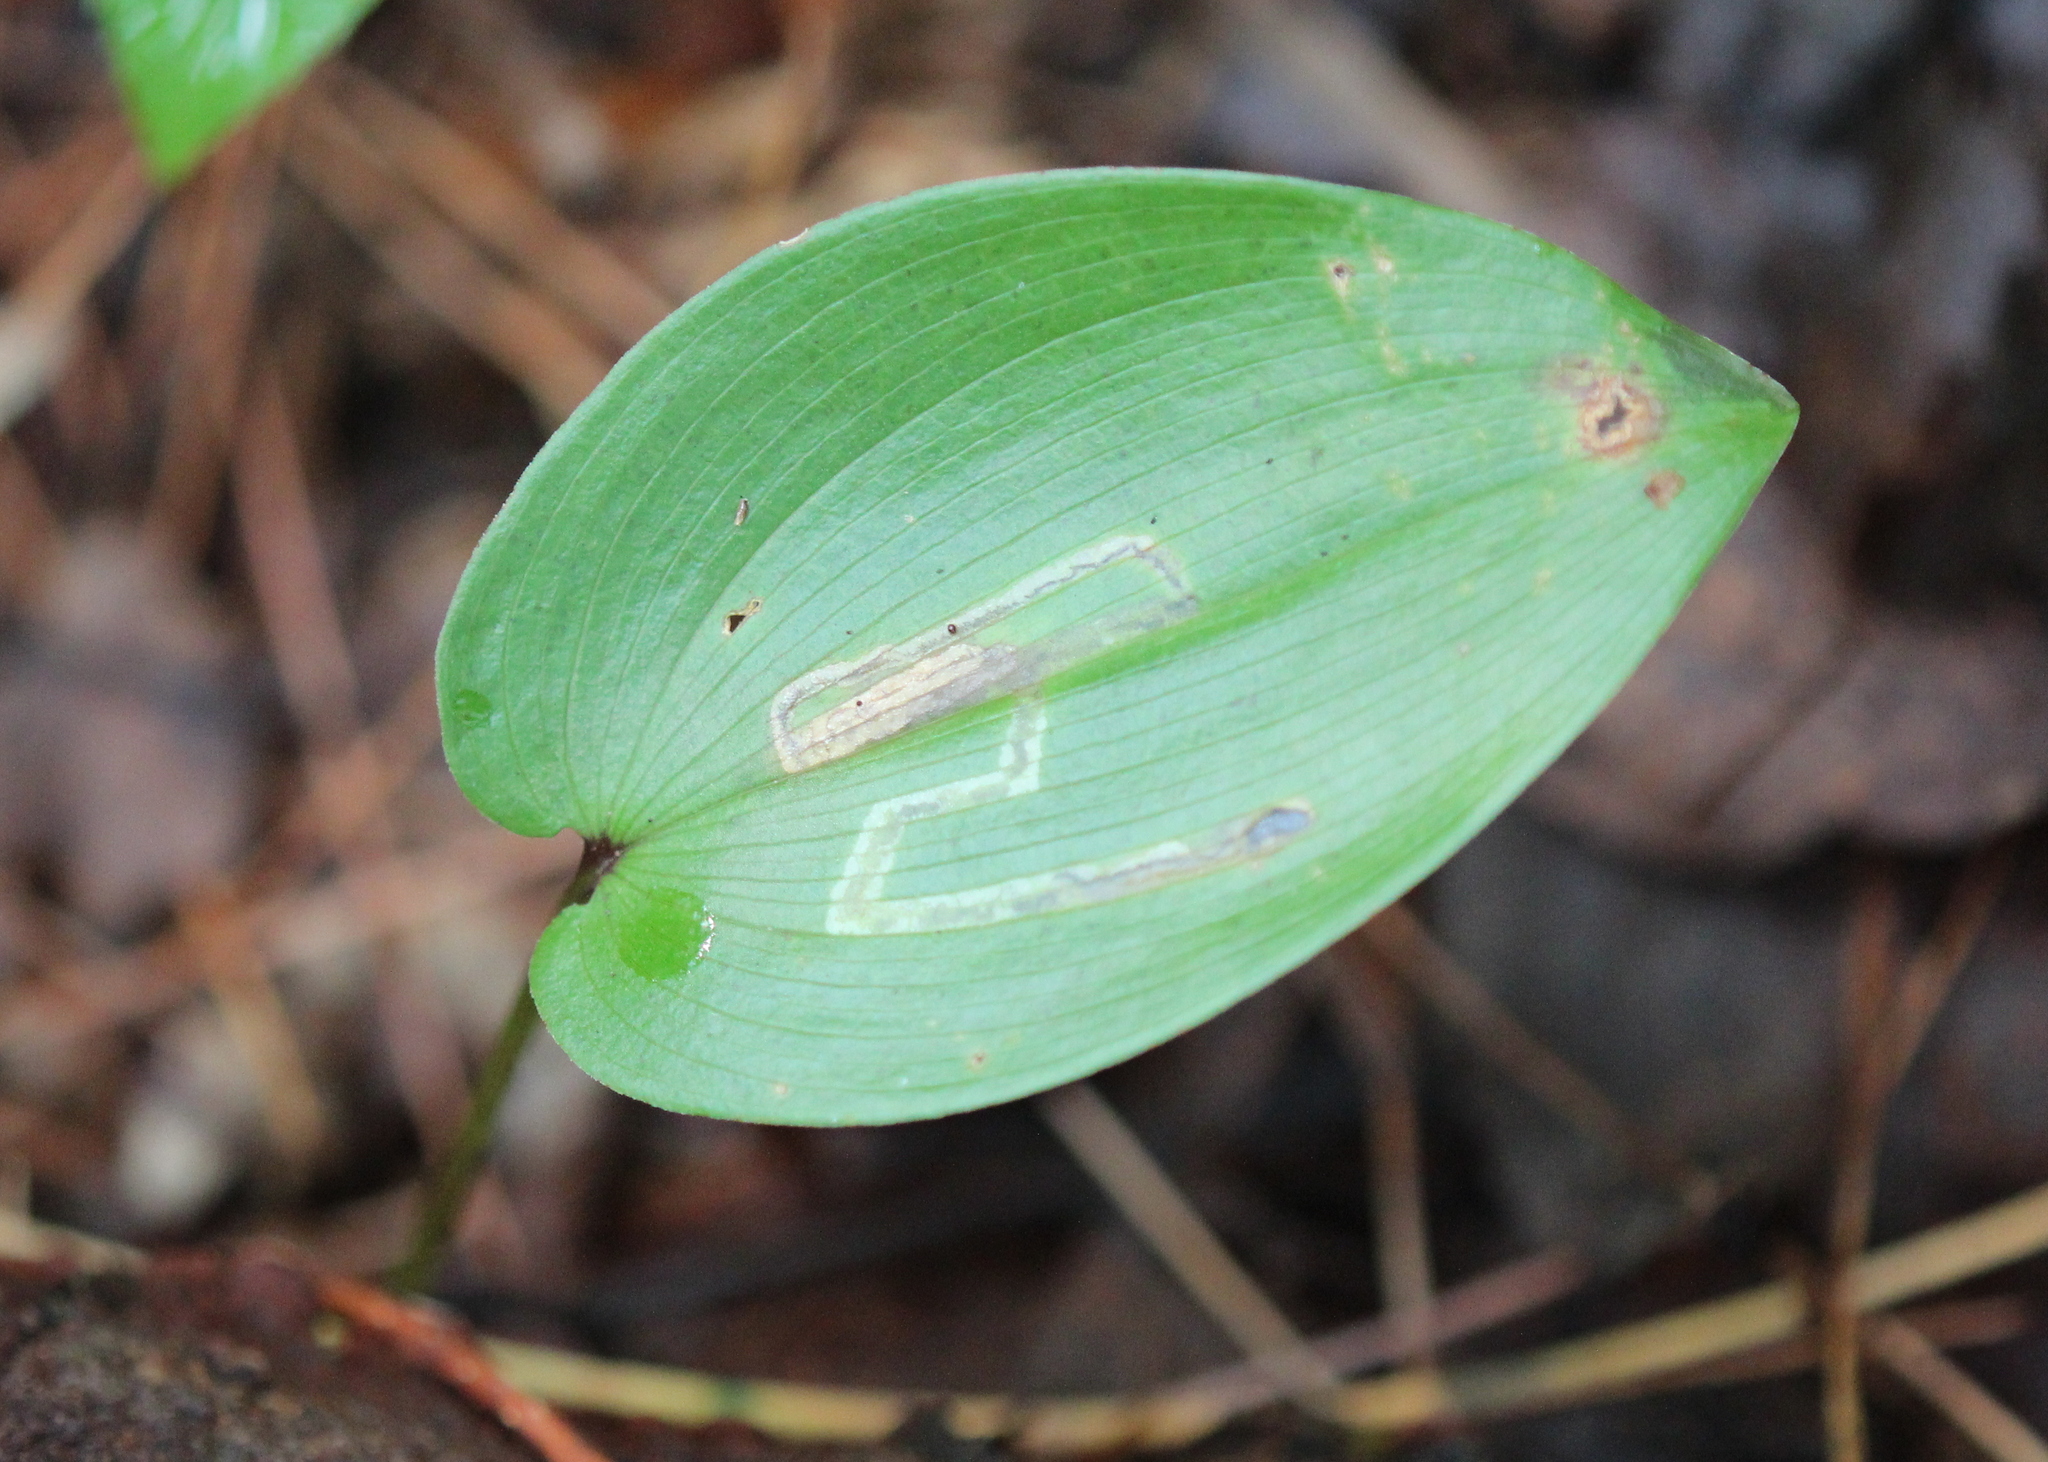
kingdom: Plantae
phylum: Tracheophyta
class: Liliopsida
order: Asparagales
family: Asparagaceae
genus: Maianthemum
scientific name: Maianthemum canadense
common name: False lily-of-the-valley
